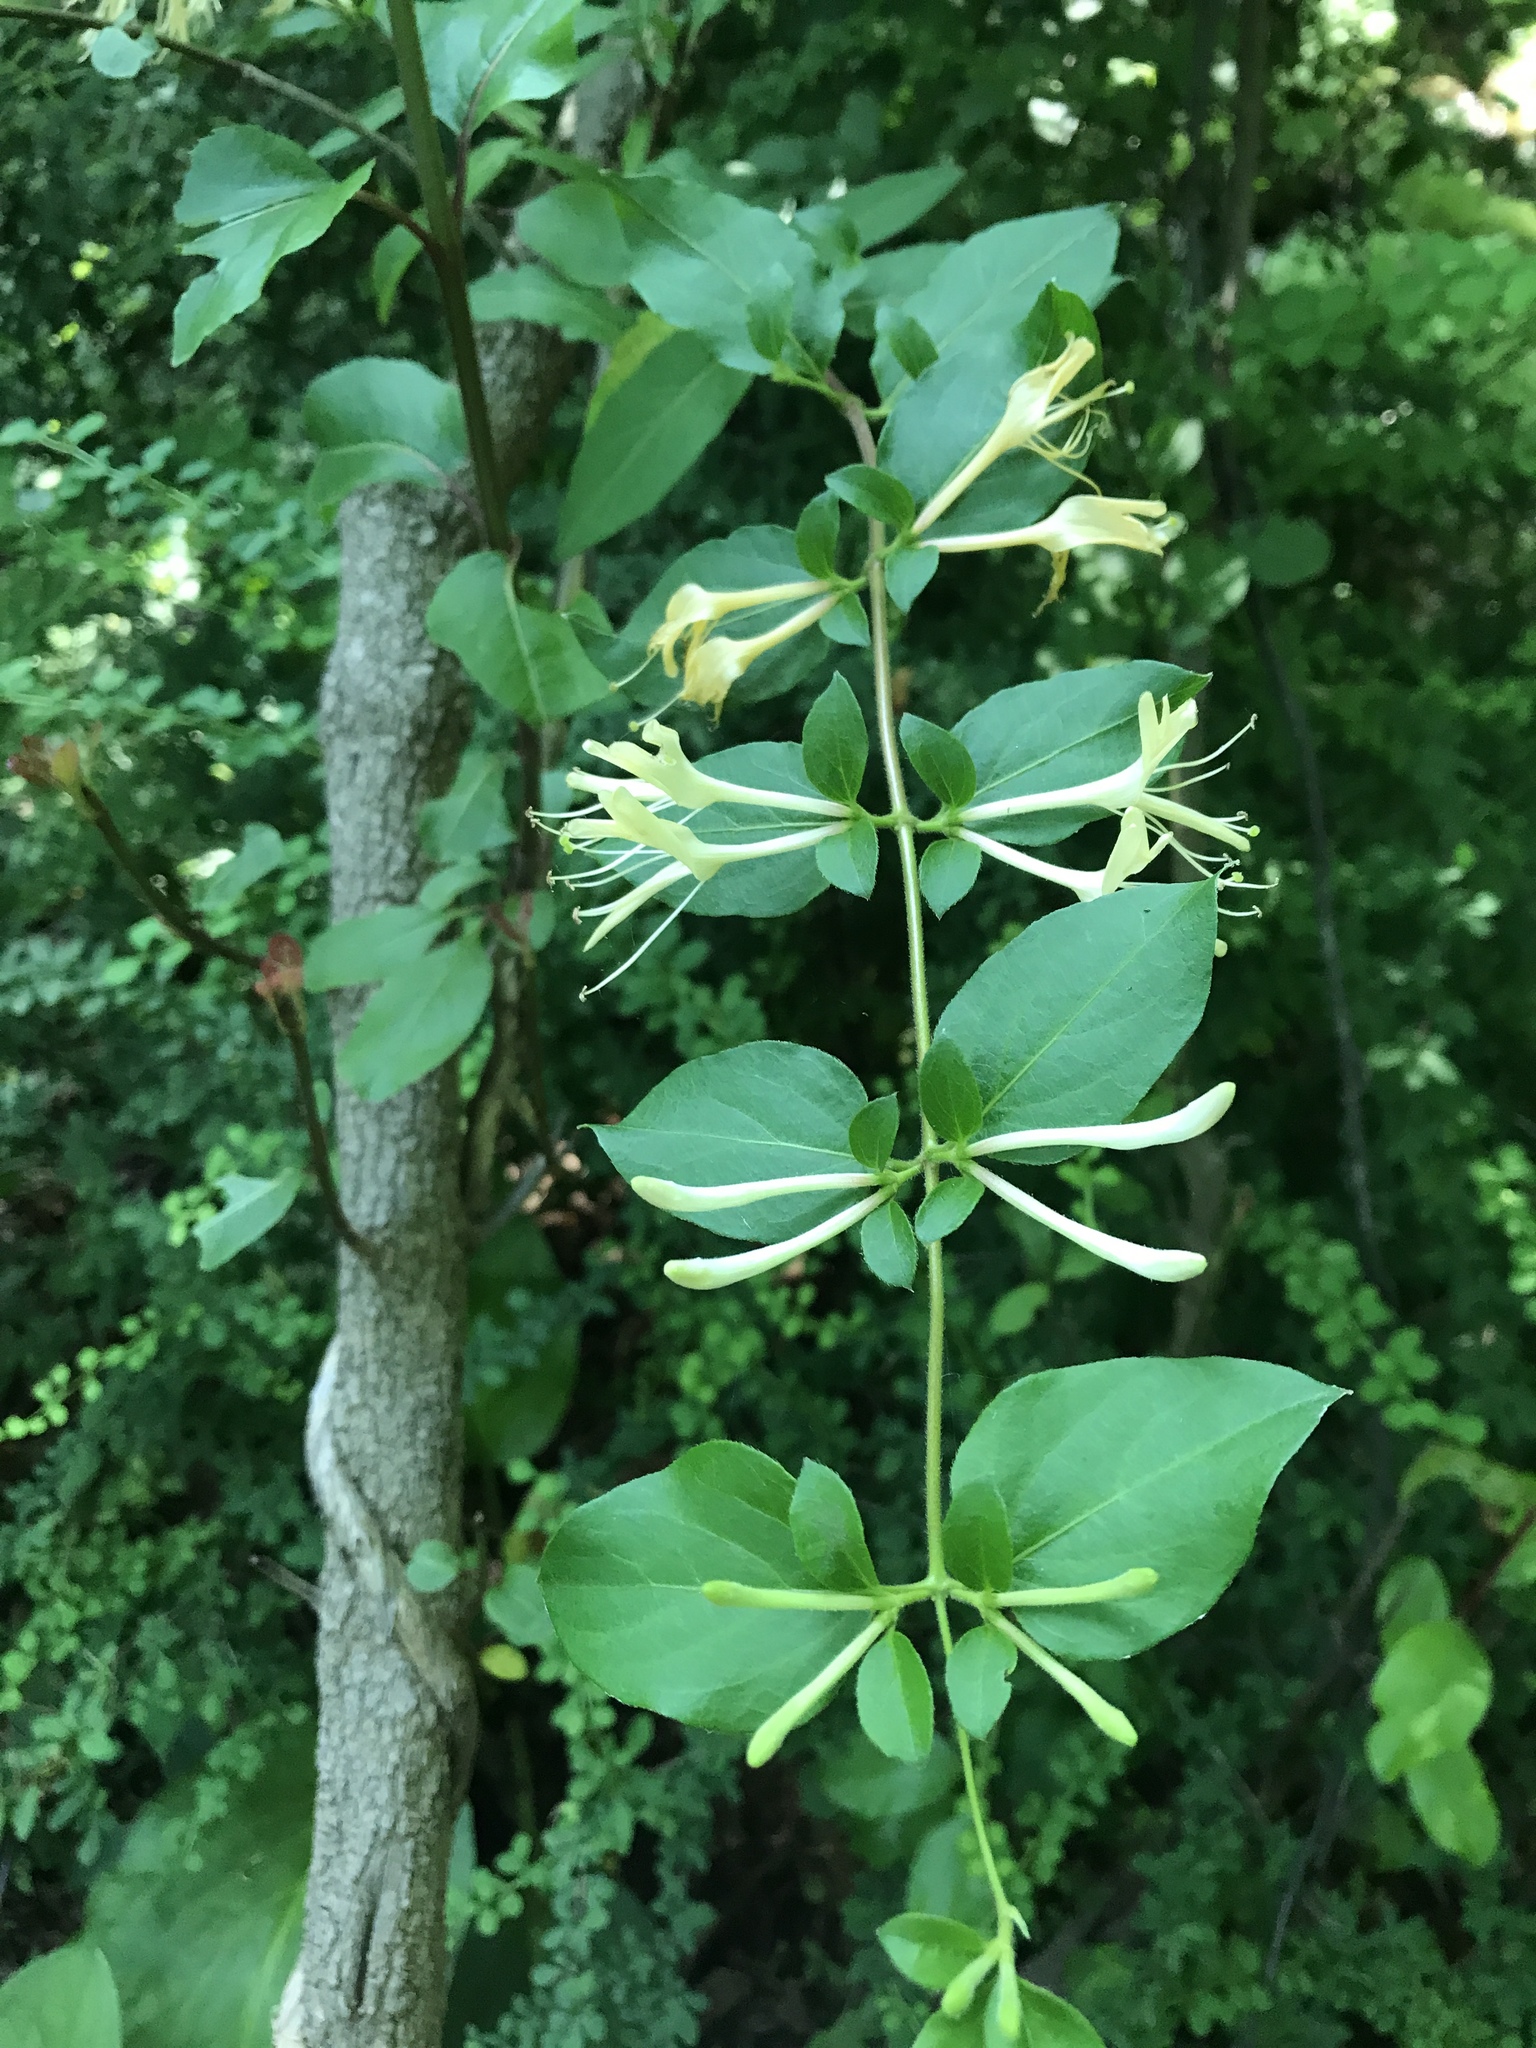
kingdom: Plantae
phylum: Tracheophyta
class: Magnoliopsida
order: Dipsacales
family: Caprifoliaceae
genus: Lonicera
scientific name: Lonicera japonica
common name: Japanese honeysuckle
